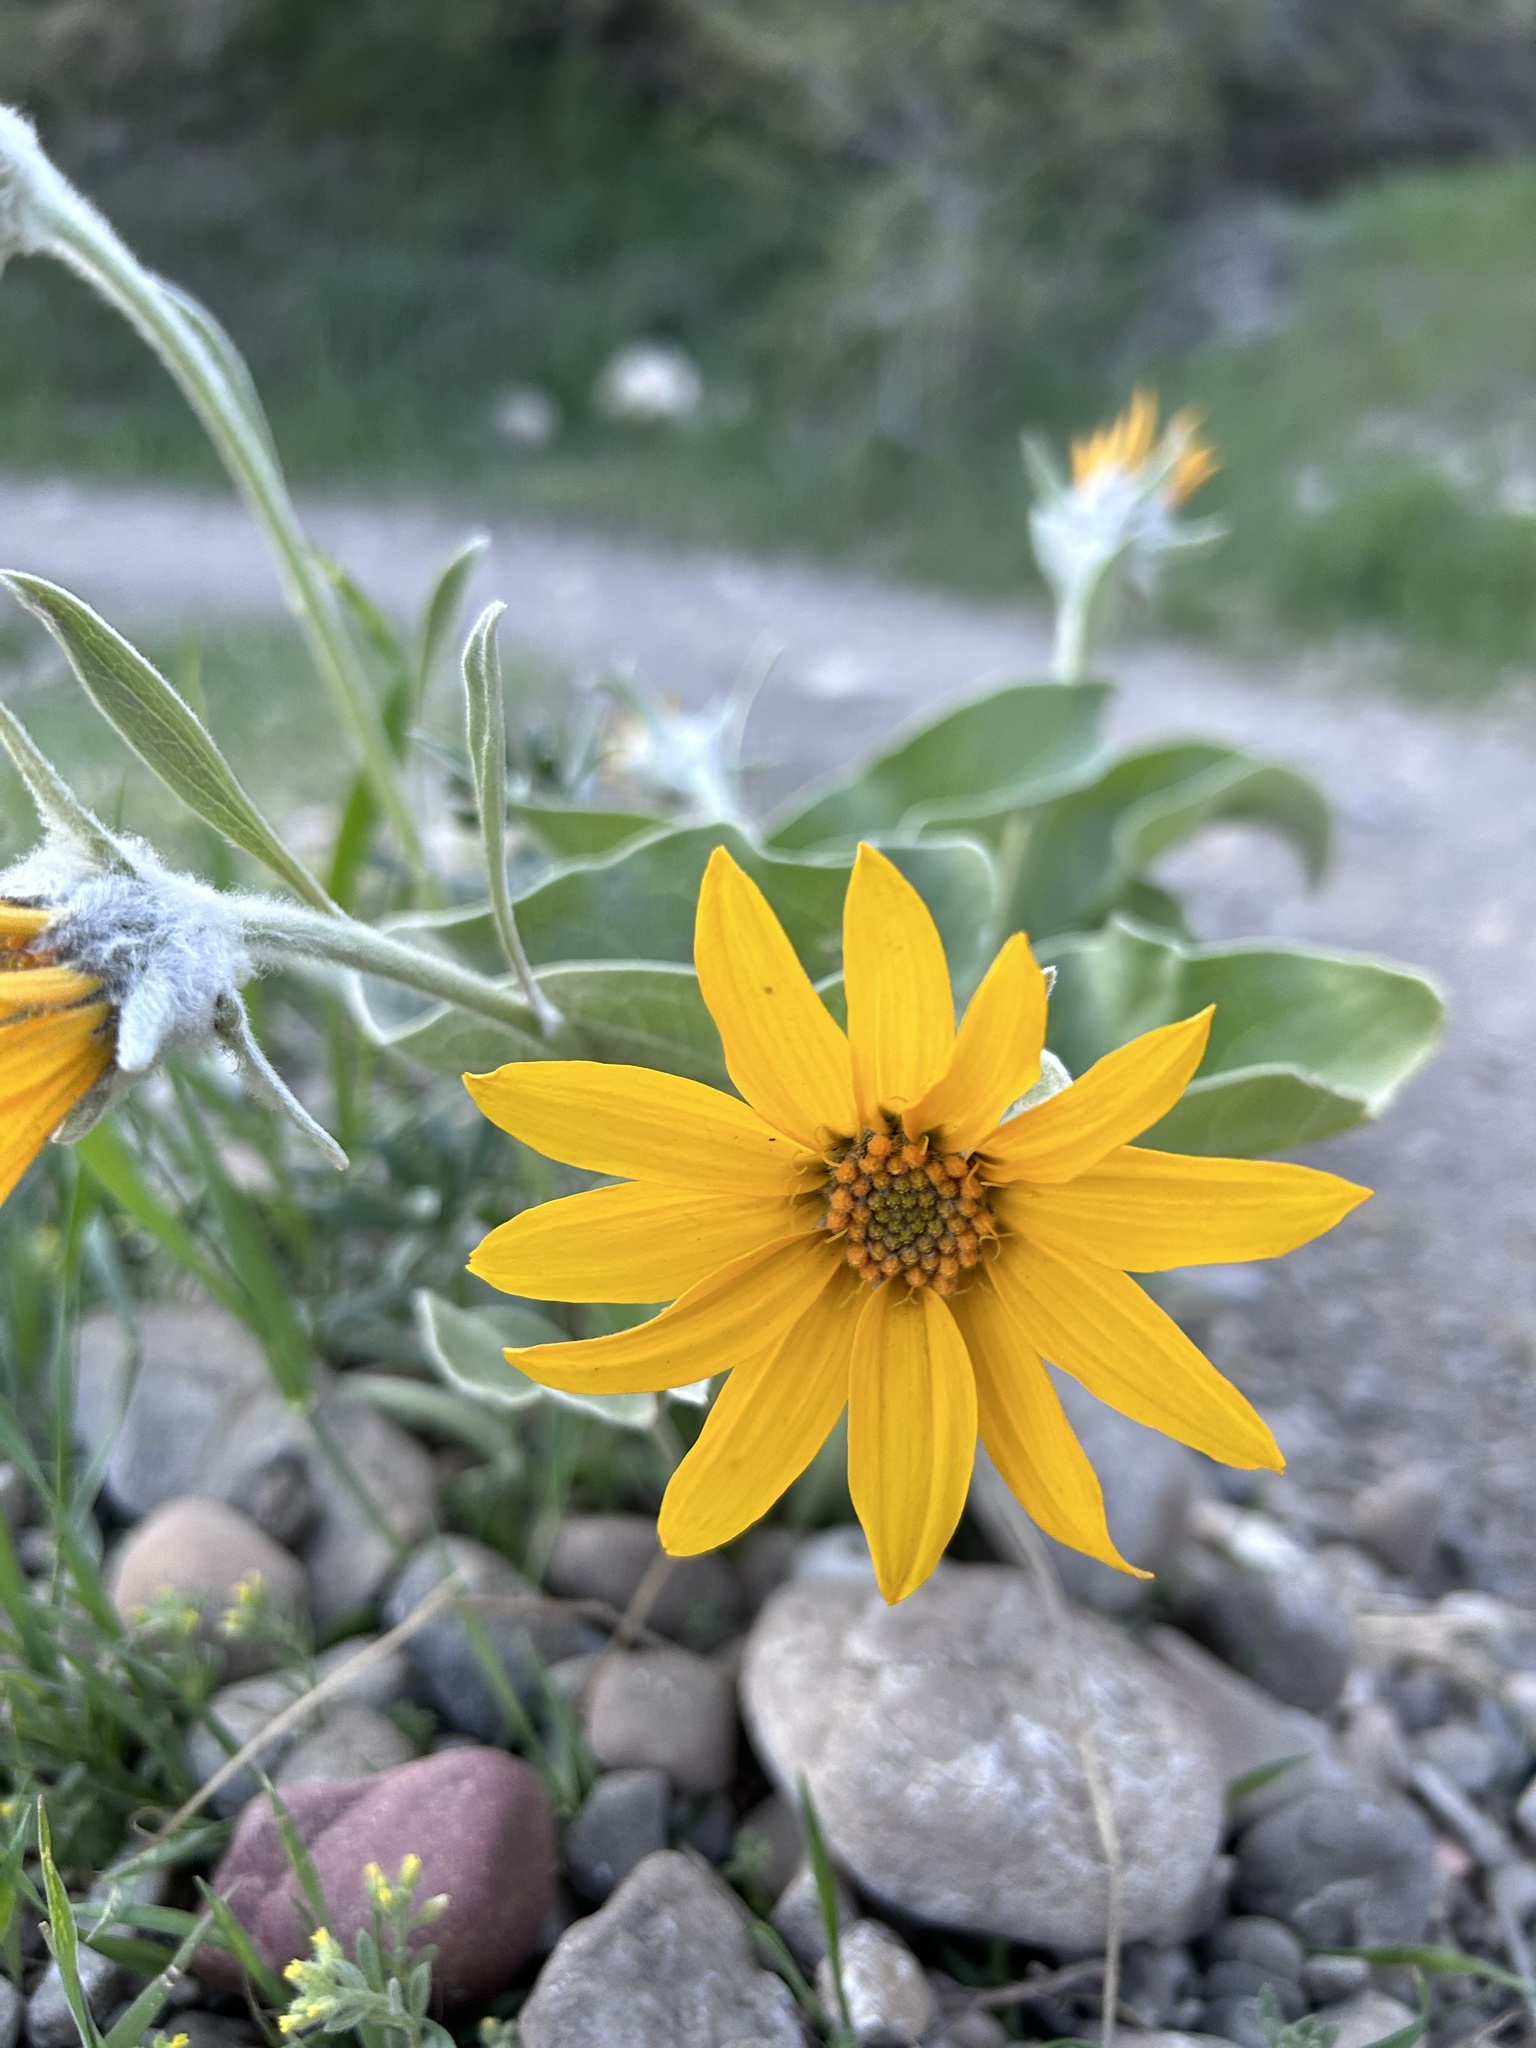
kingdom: Plantae
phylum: Tracheophyta
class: Magnoliopsida
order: Asterales
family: Asteraceae
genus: Wyethia
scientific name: Wyethia sagittata
